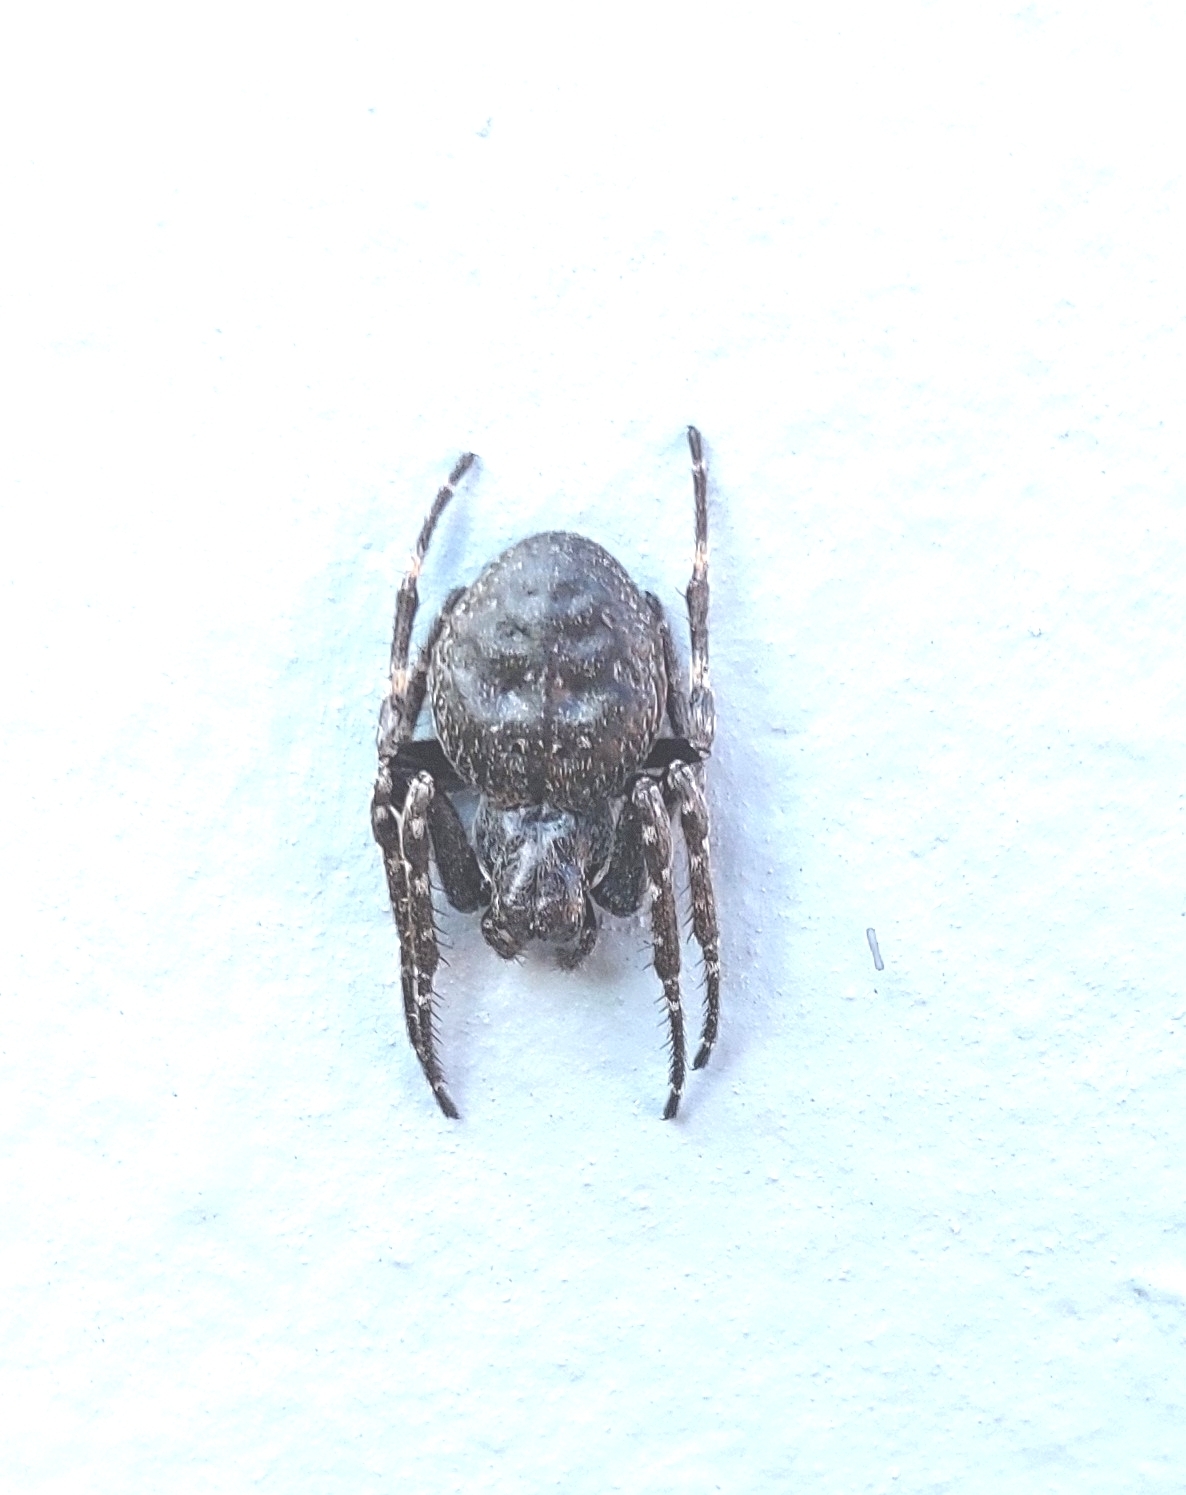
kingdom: Animalia
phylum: Arthropoda
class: Arachnida
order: Araneae
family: Araneidae
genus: Nuctenea
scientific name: Nuctenea umbratica
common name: Toad spider
